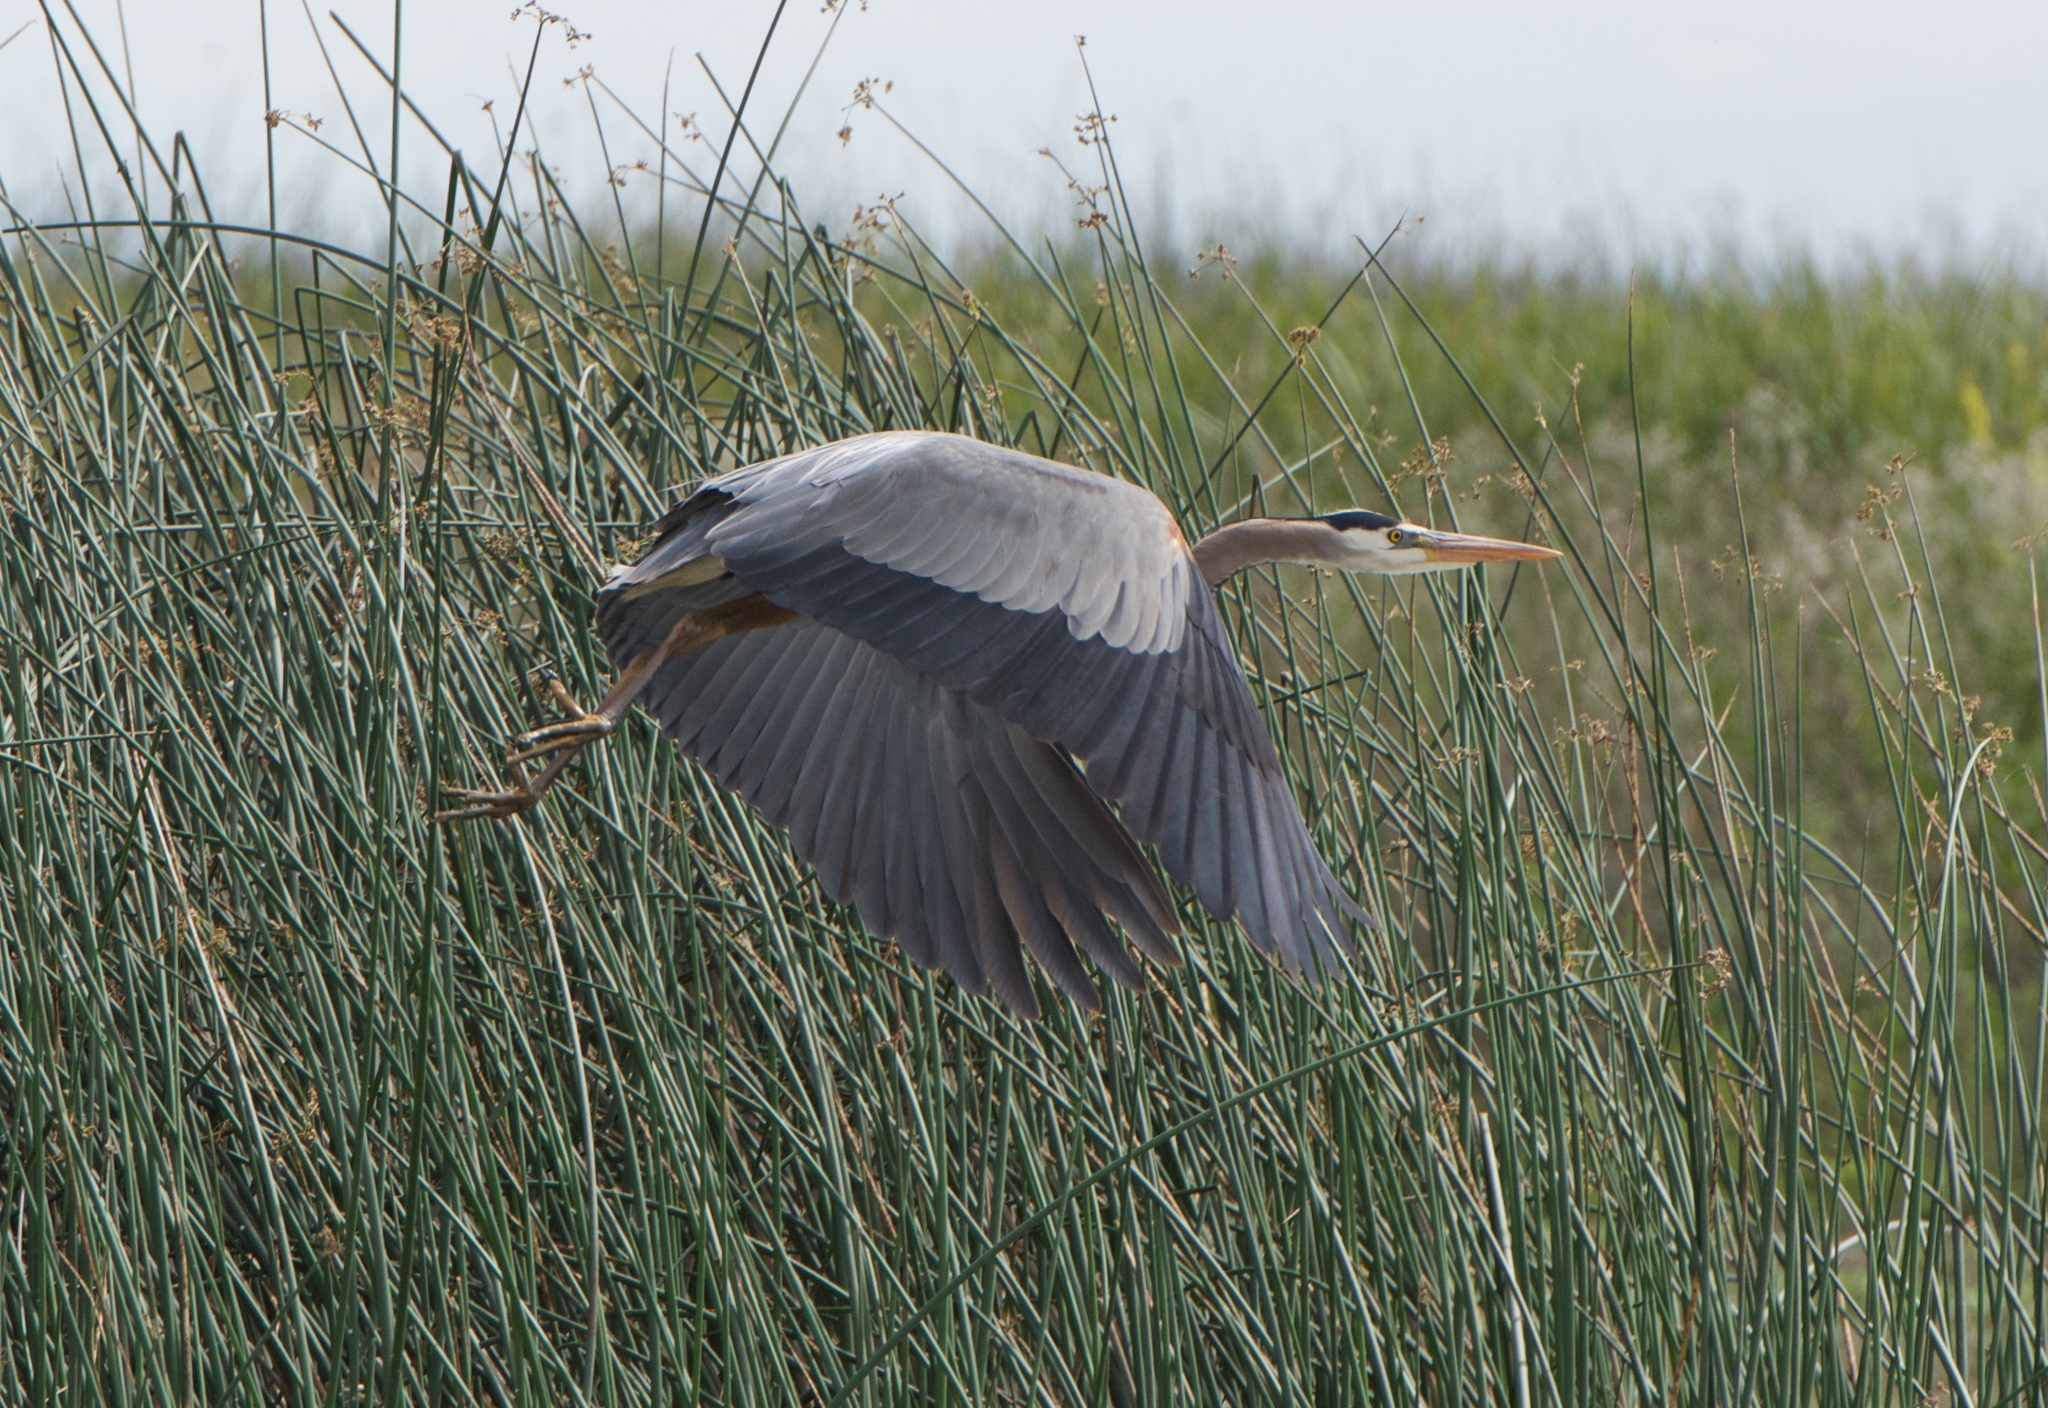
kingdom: Animalia
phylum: Chordata
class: Aves
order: Pelecaniformes
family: Ardeidae
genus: Ardea
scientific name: Ardea herodias
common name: Great blue heron
